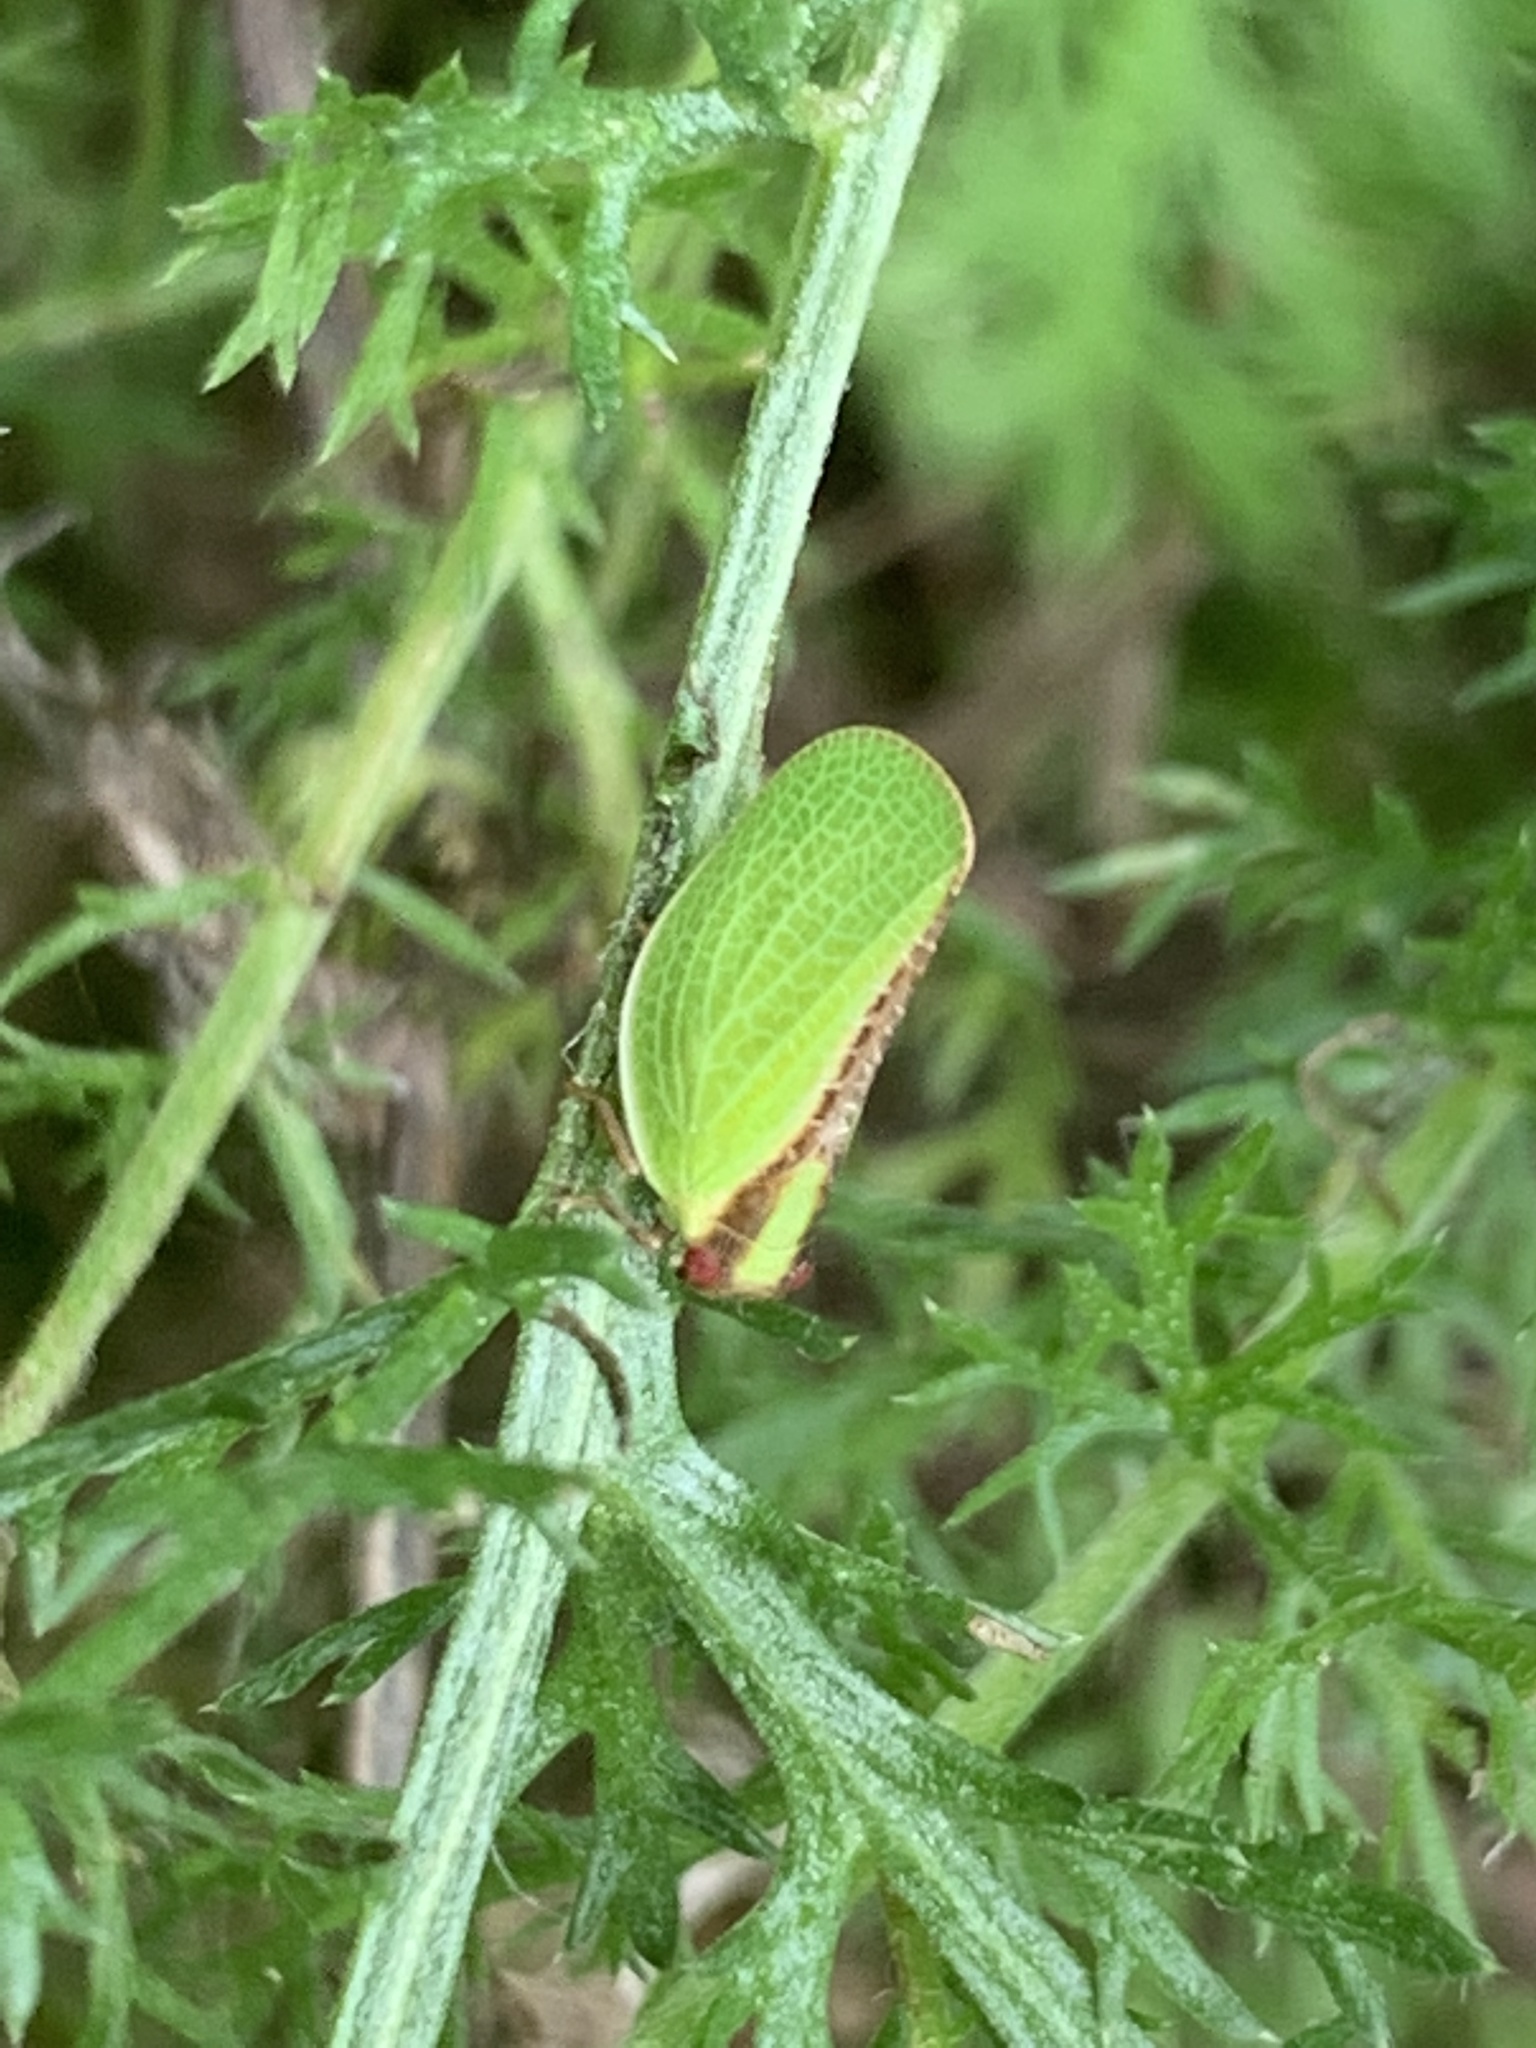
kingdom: Animalia
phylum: Arthropoda
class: Insecta
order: Hemiptera
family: Acanaloniidae
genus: Acanalonia
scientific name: Acanalonia bivittata
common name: Two-striped planthopper
